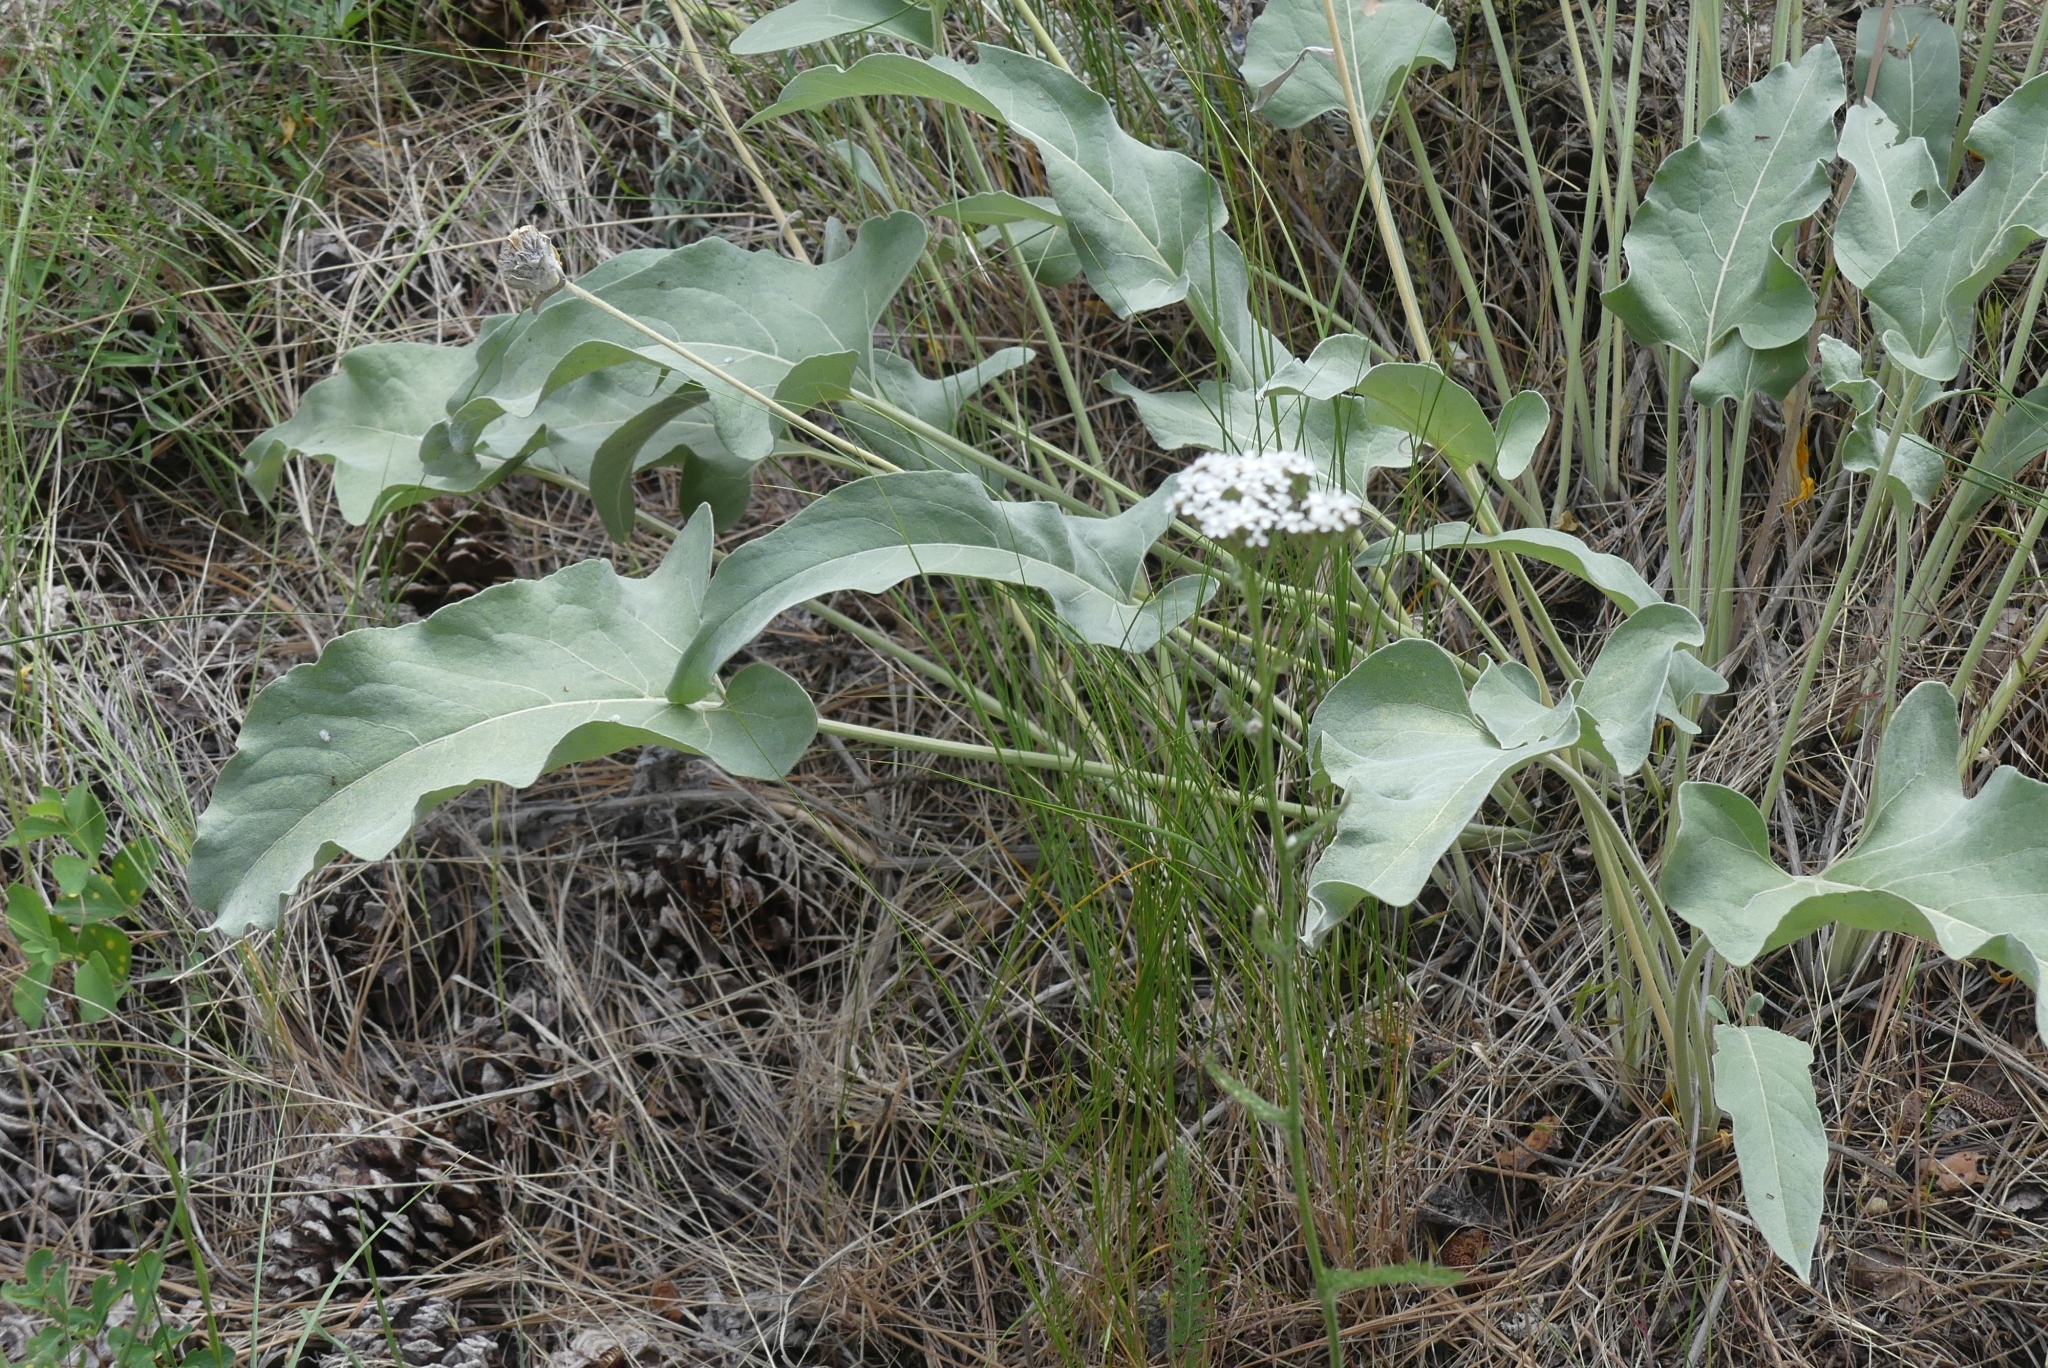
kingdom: Plantae
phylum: Tracheophyta
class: Magnoliopsida
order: Asterales
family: Asteraceae
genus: Achillea
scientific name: Achillea millefolium
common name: Yarrow
